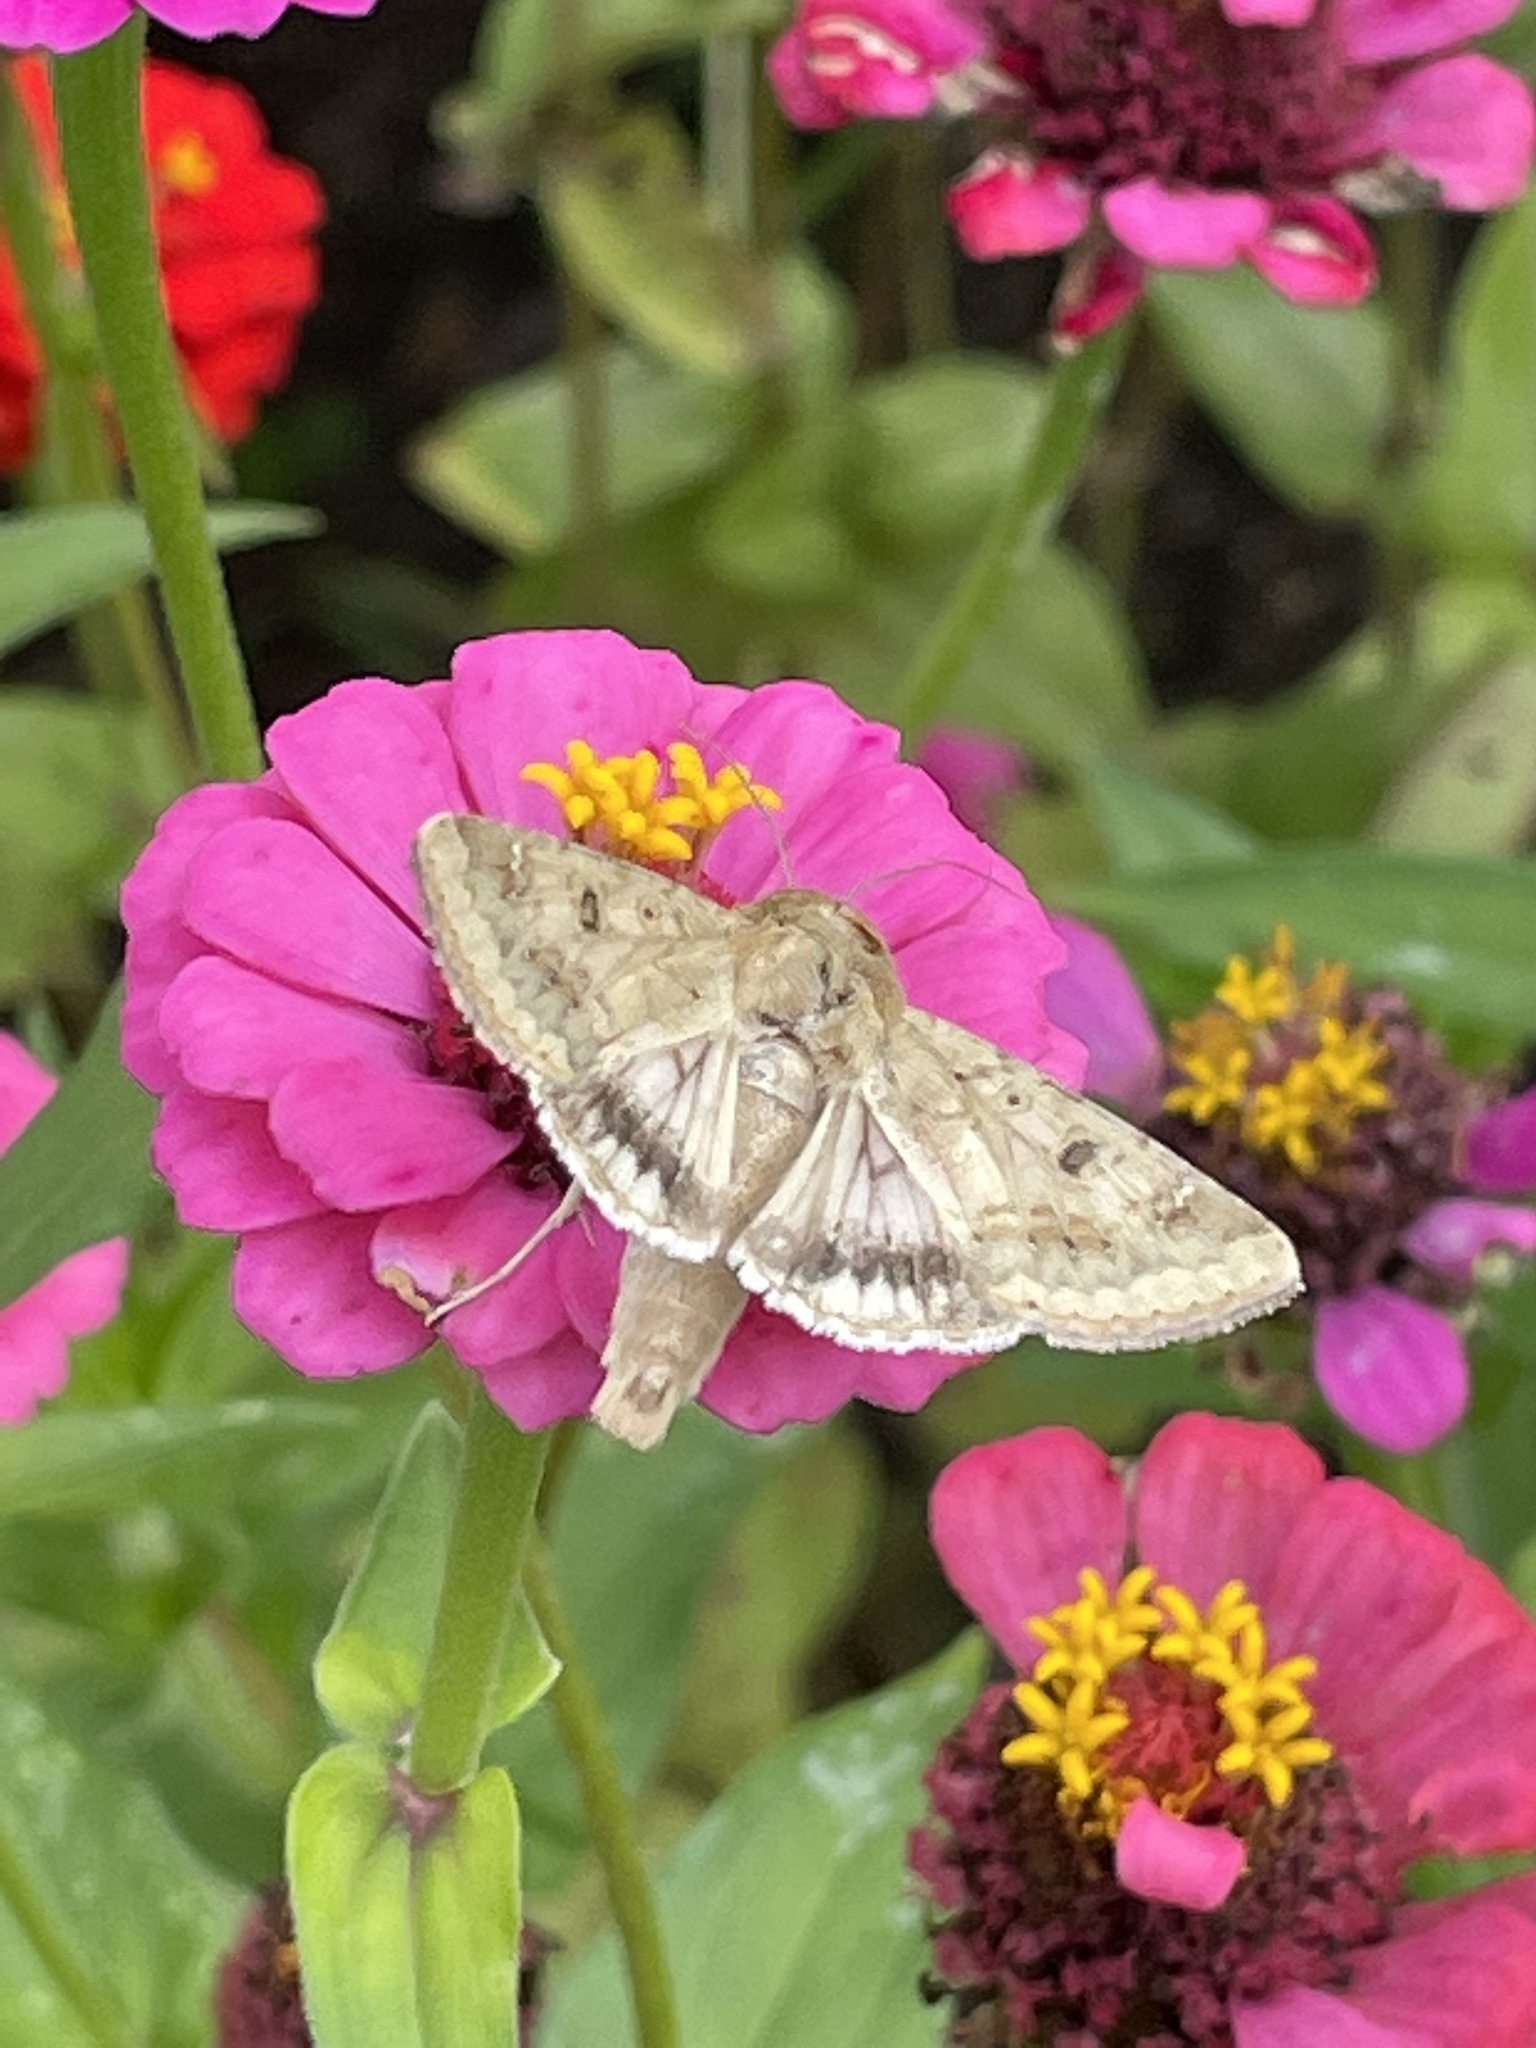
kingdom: Animalia
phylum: Arthropoda
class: Insecta
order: Lepidoptera
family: Noctuidae
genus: Helicoverpa
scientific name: Helicoverpa zea
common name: Bollworm
